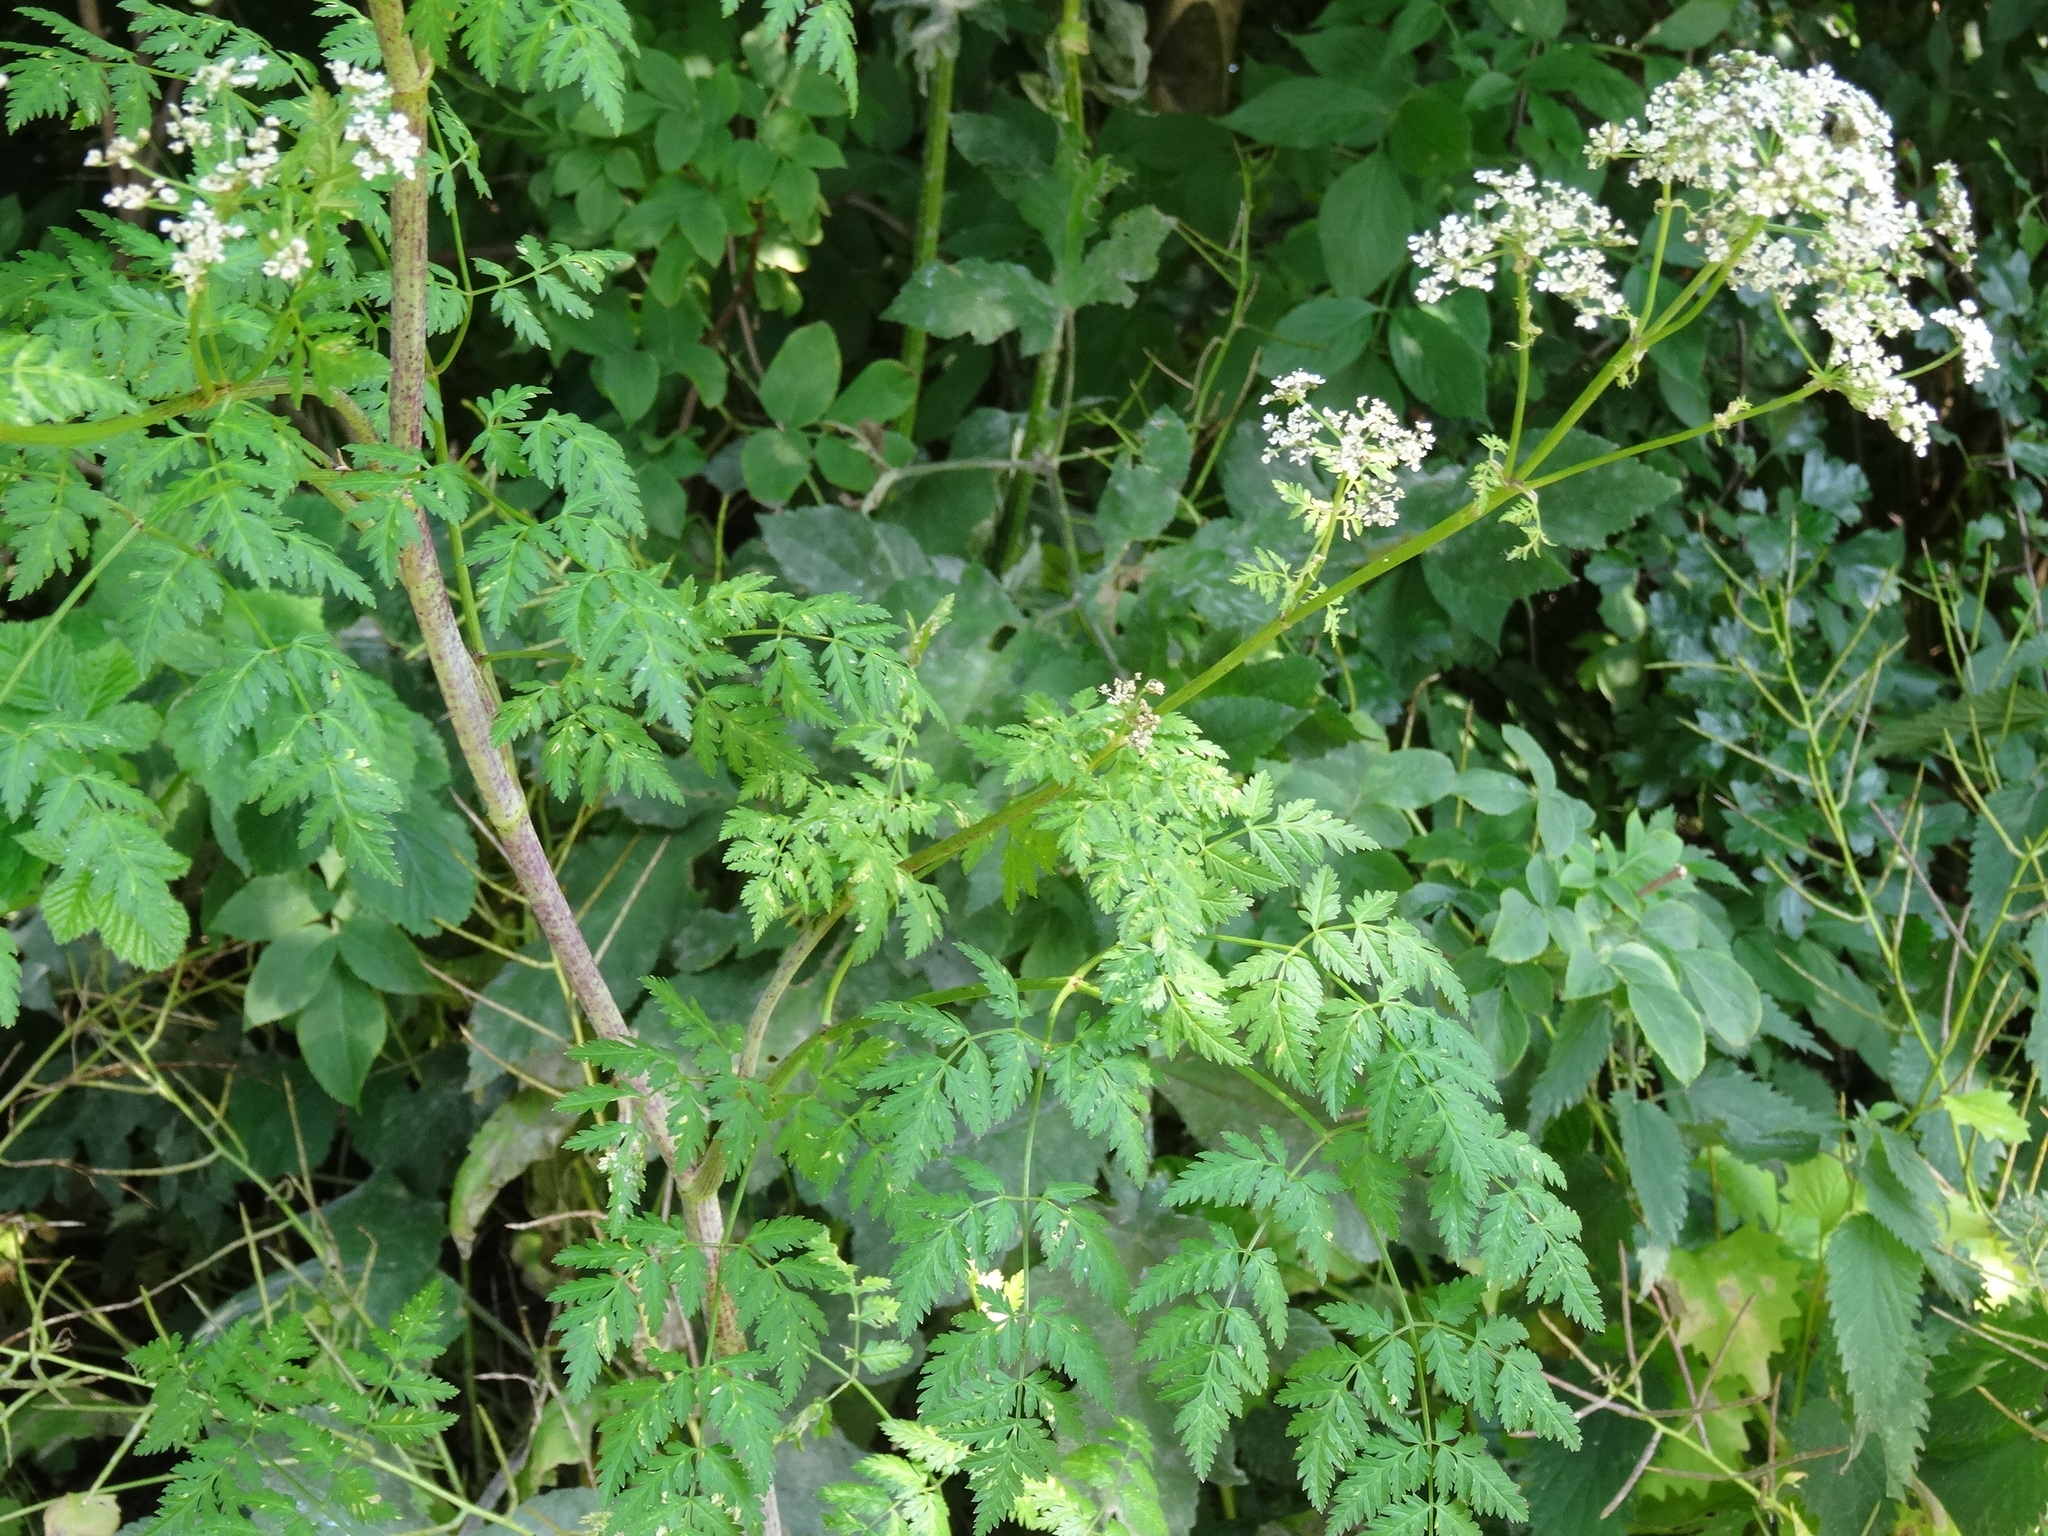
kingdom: Plantae
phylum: Tracheophyta
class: Magnoliopsida
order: Apiales
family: Apiaceae
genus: Conium
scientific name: Conium maculatum
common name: Hemlock
